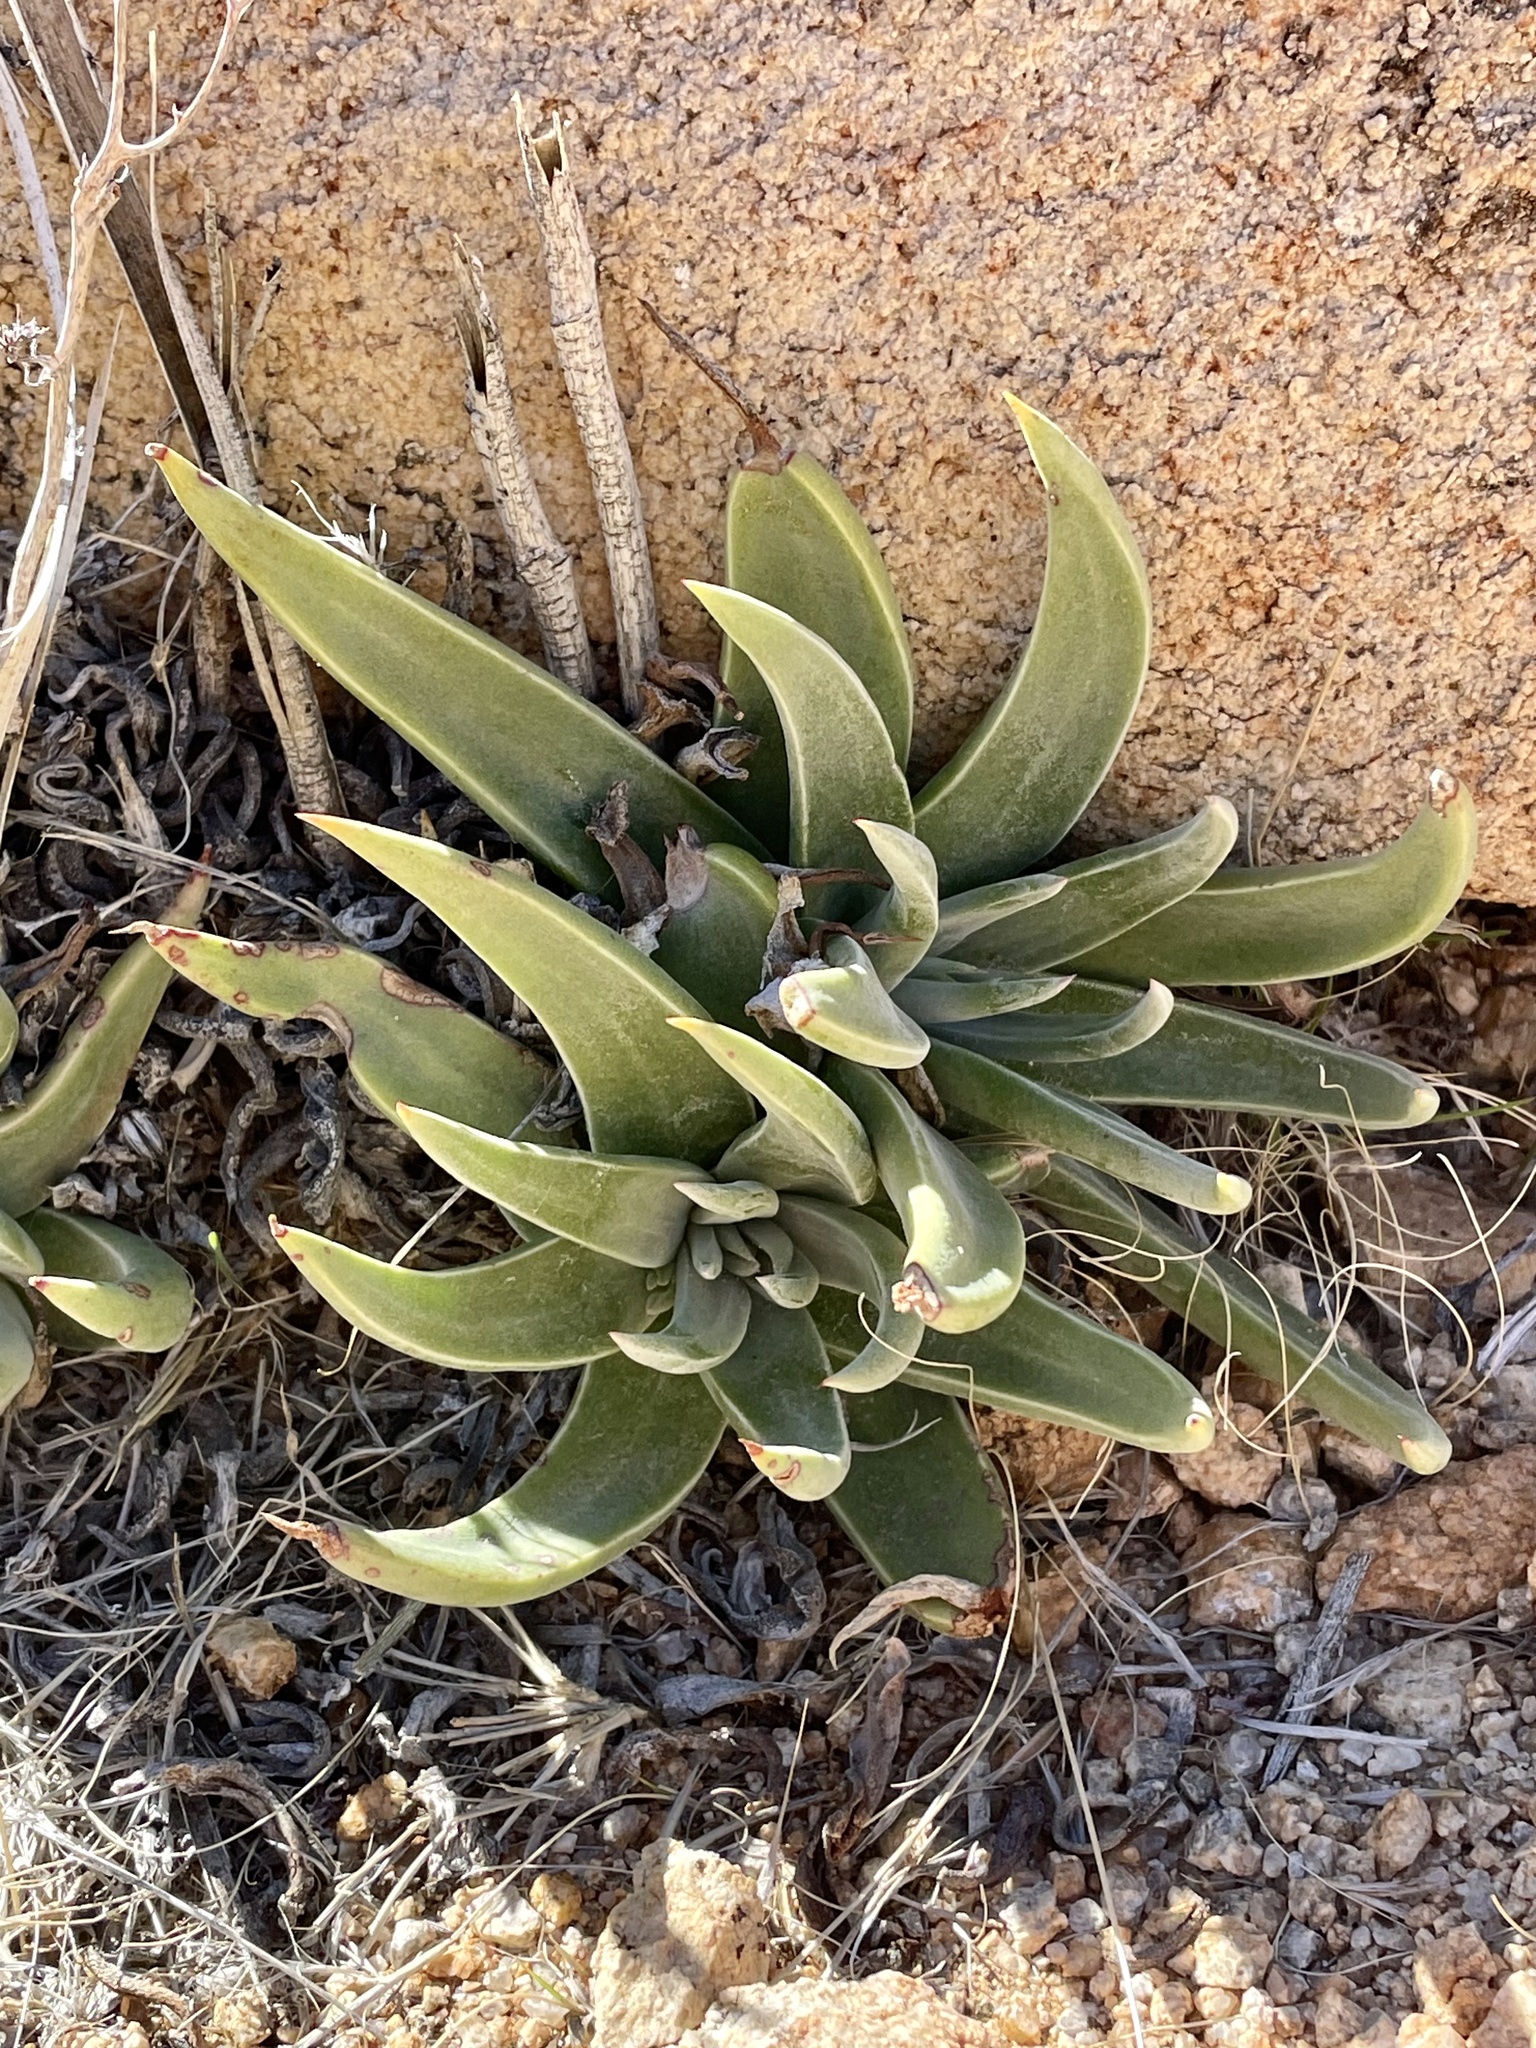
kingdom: Plantae
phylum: Tracheophyta
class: Magnoliopsida
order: Saxifragales
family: Crassulaceae
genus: Dudleya
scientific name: Dudleya saxosa
